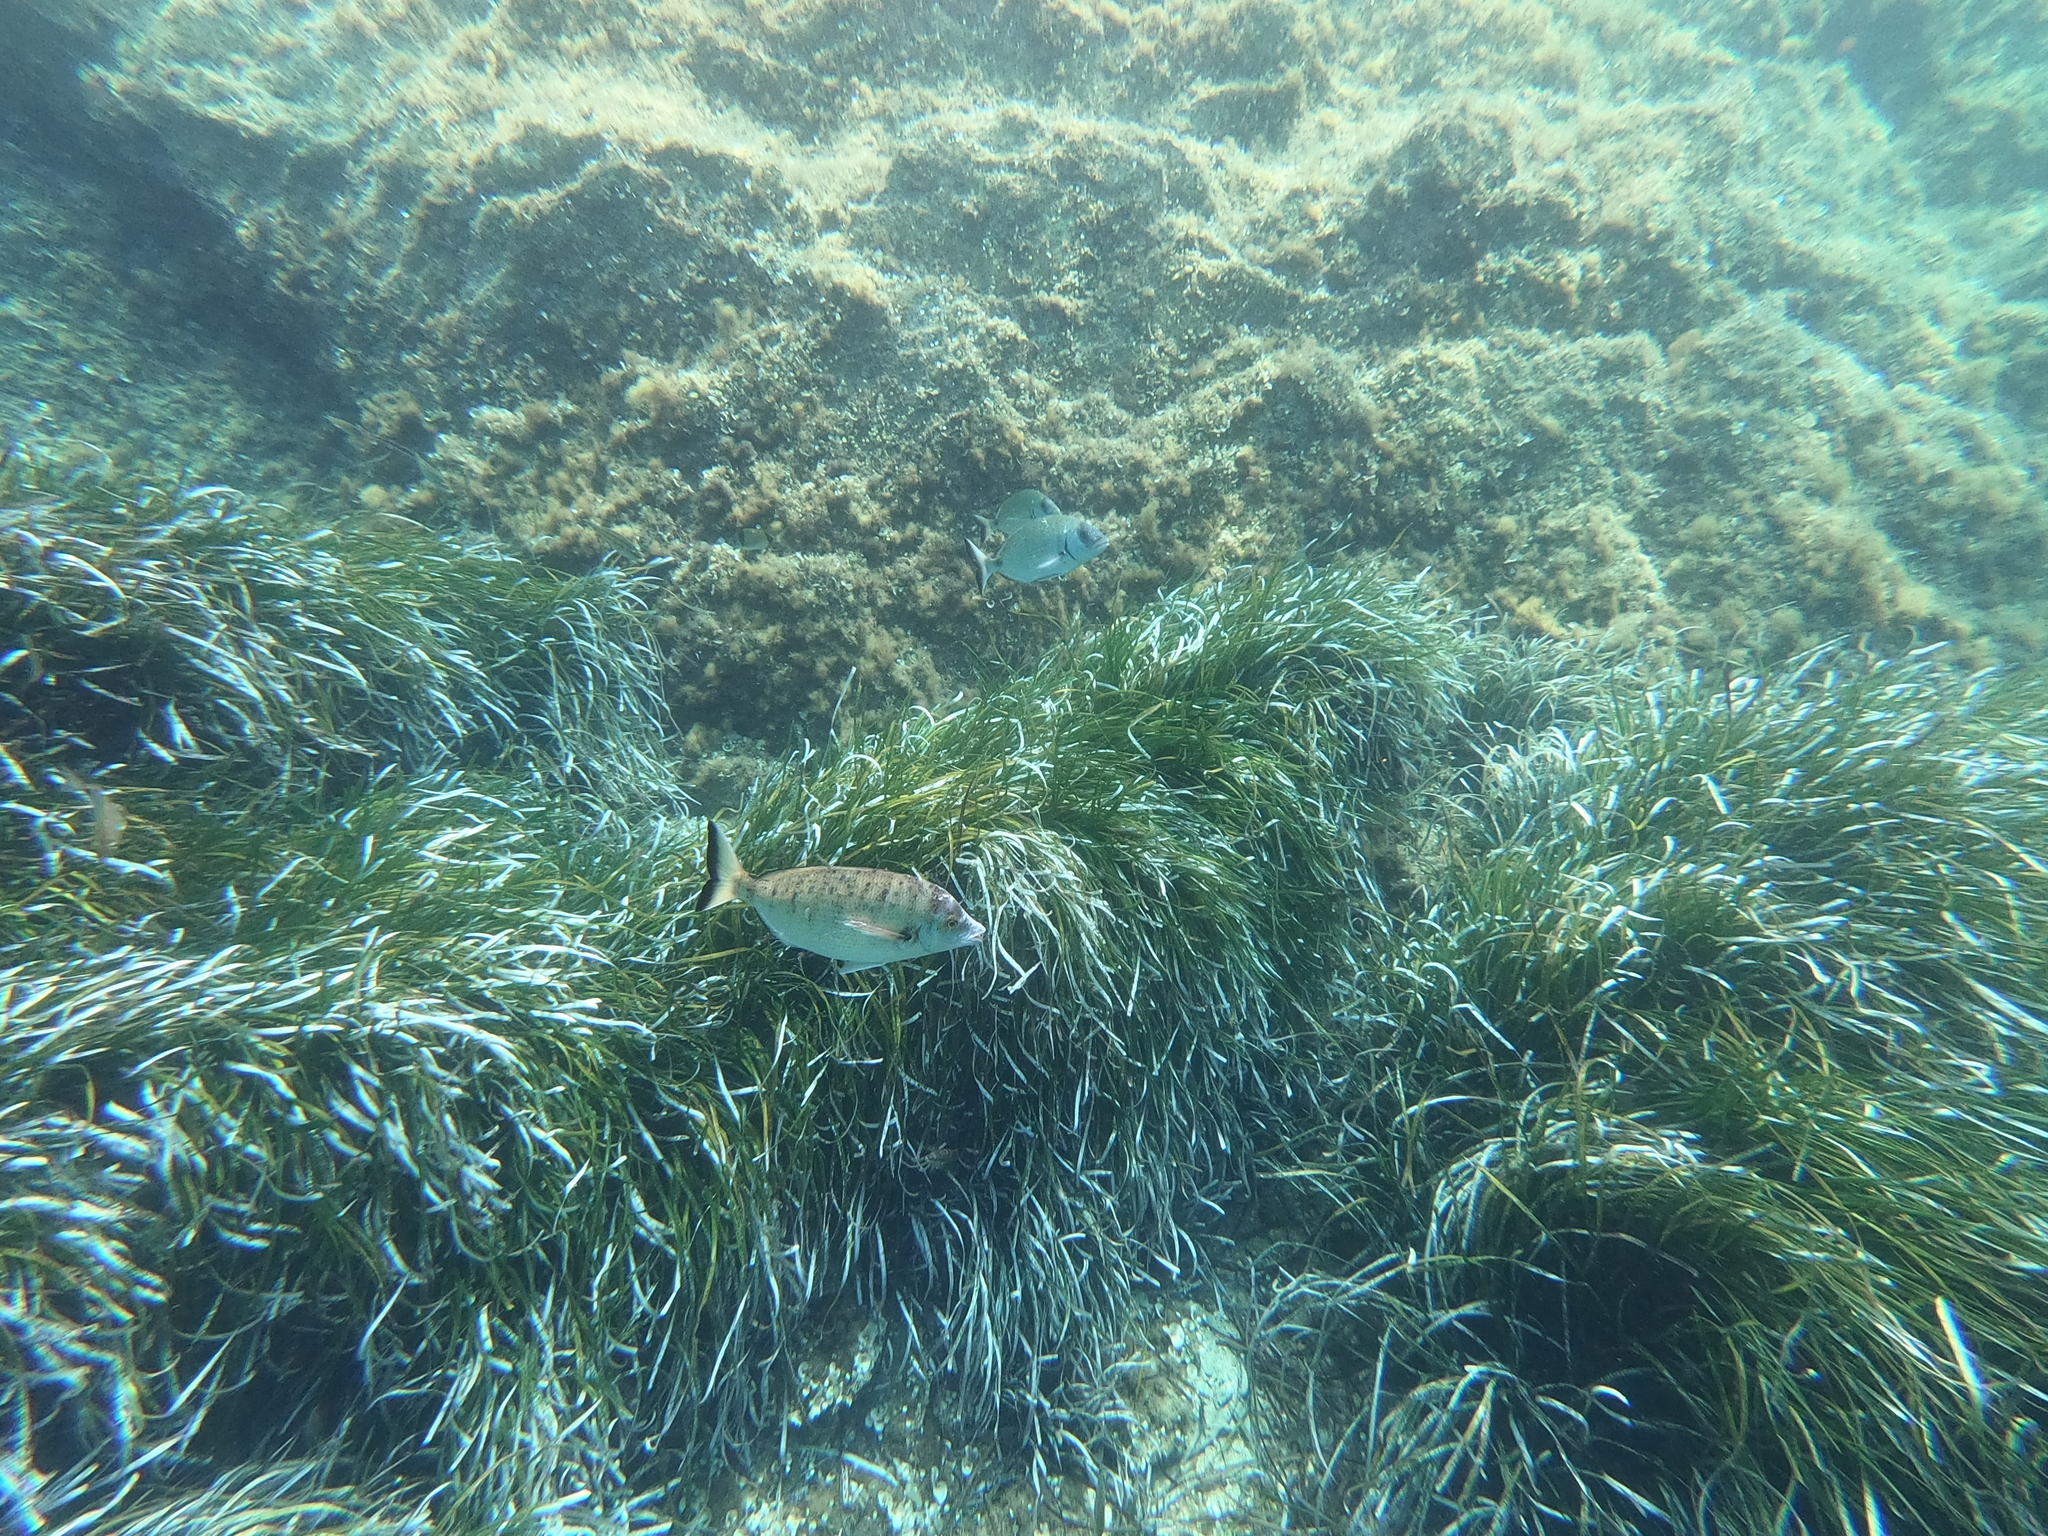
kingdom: Animalia
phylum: Chordata
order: Perciformes
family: Sparidae
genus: Diplodus
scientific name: Diplodus puntazzo
